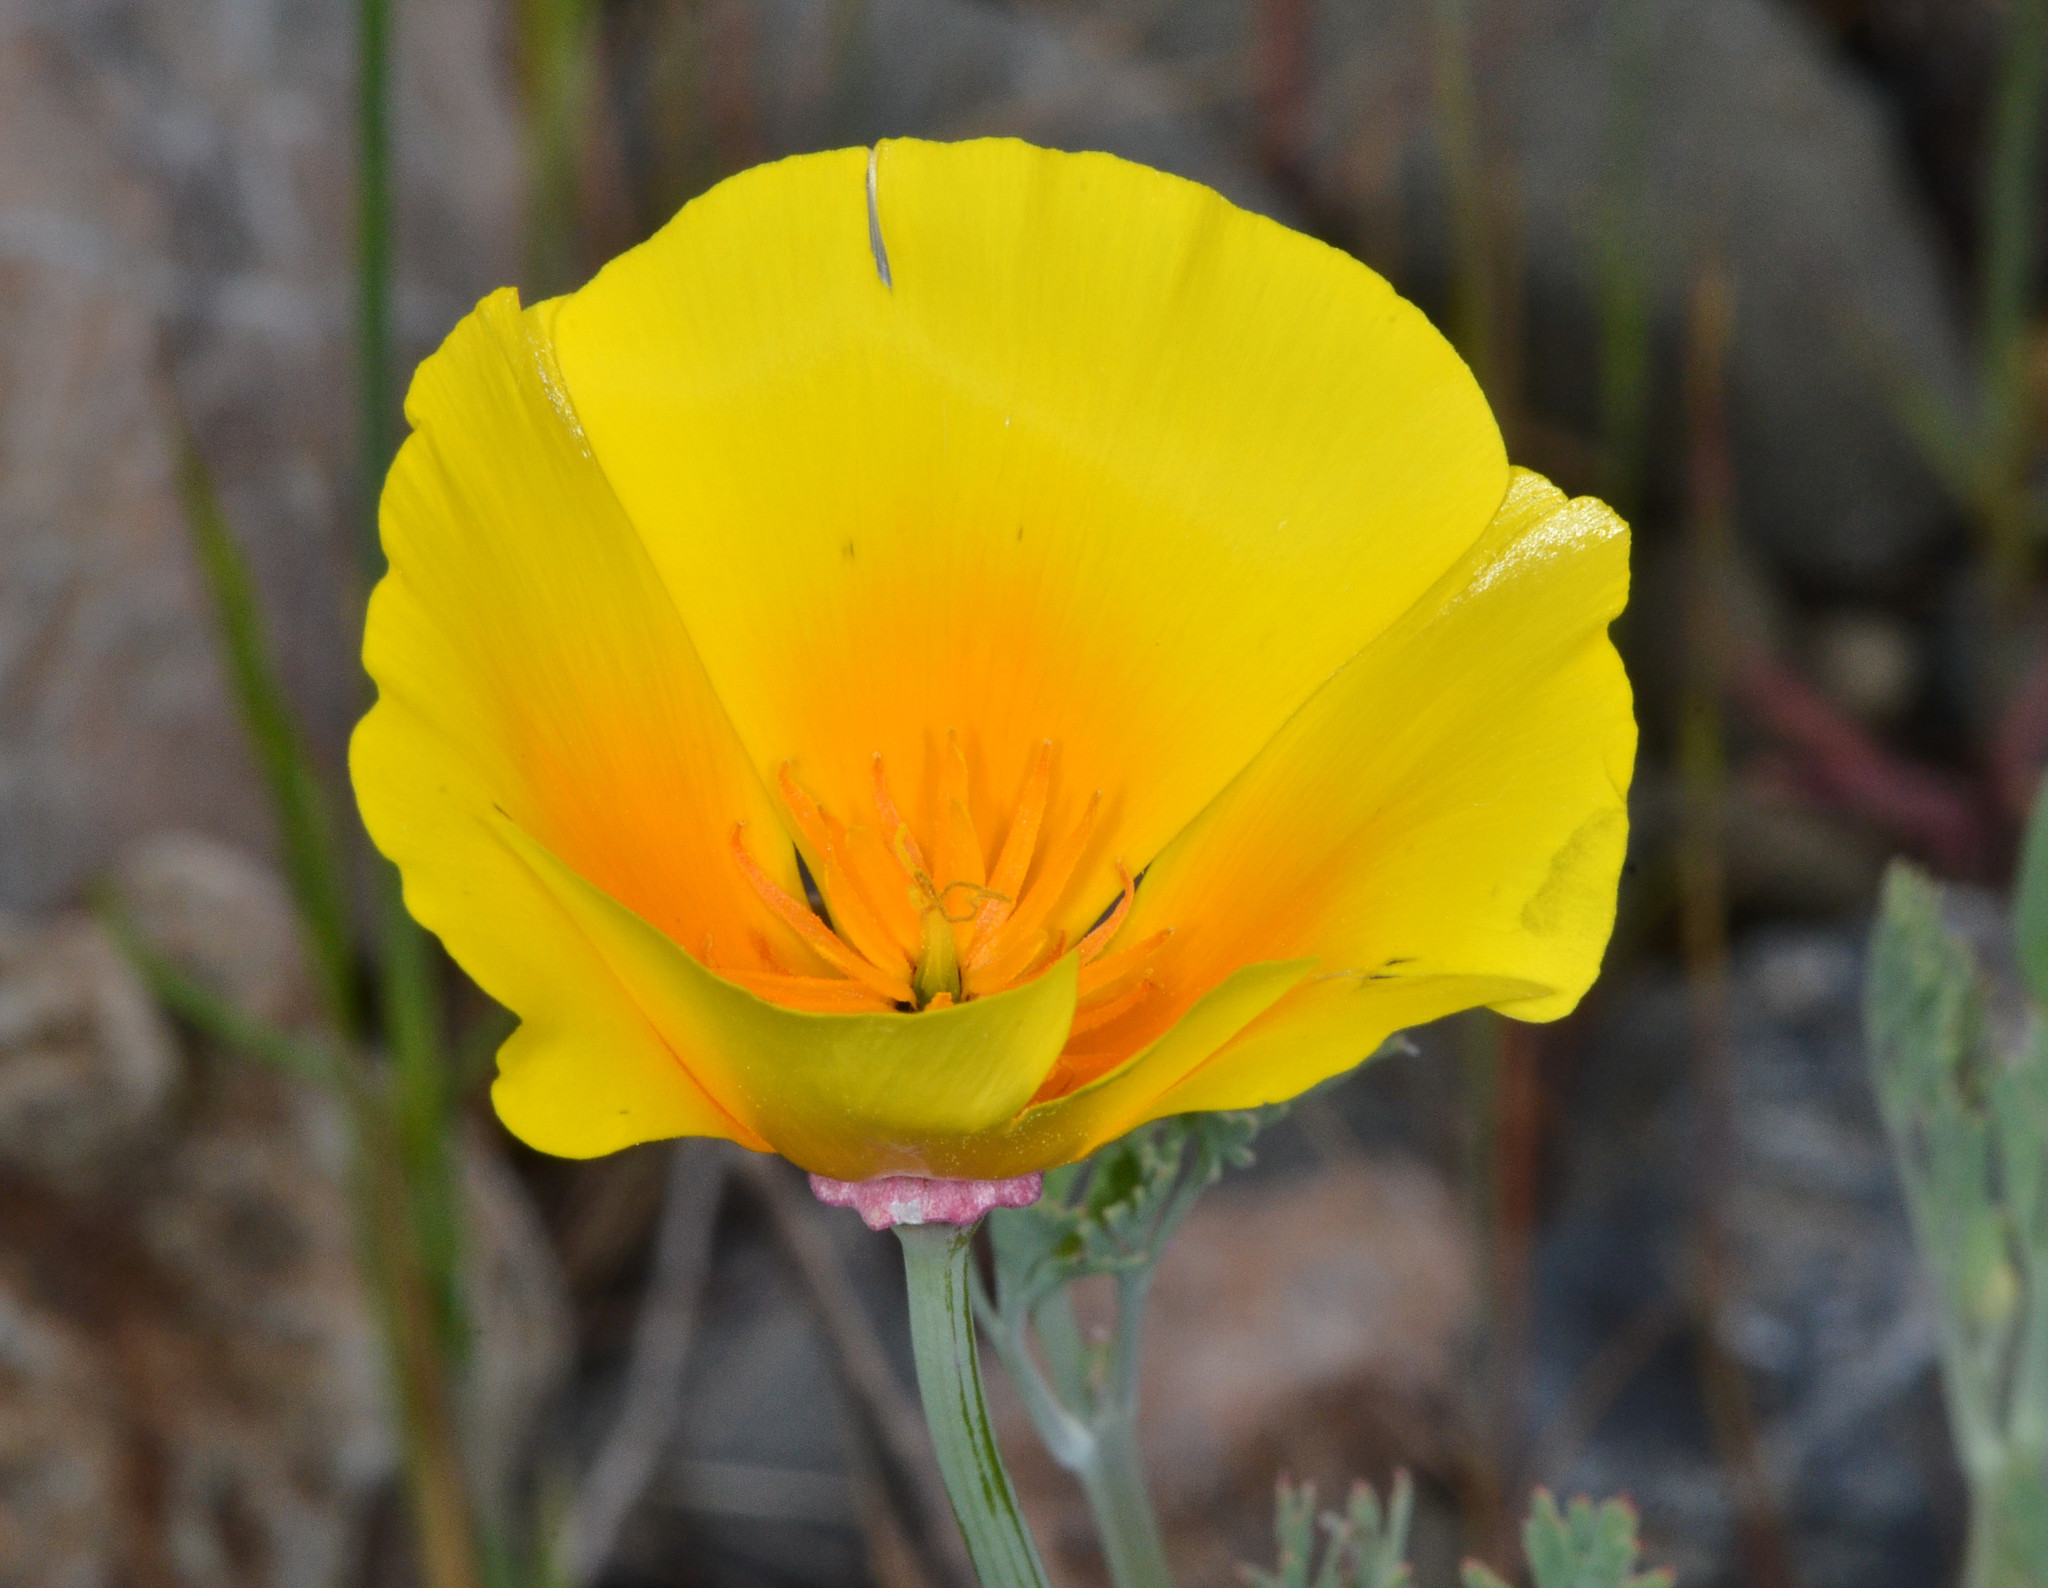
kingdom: Plantae
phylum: Tracheophyta
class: Magnoliopsida
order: Ranunculales
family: Papaveraceae
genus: Eschscholzia
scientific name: Eschscholzia californica
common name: California poppy
